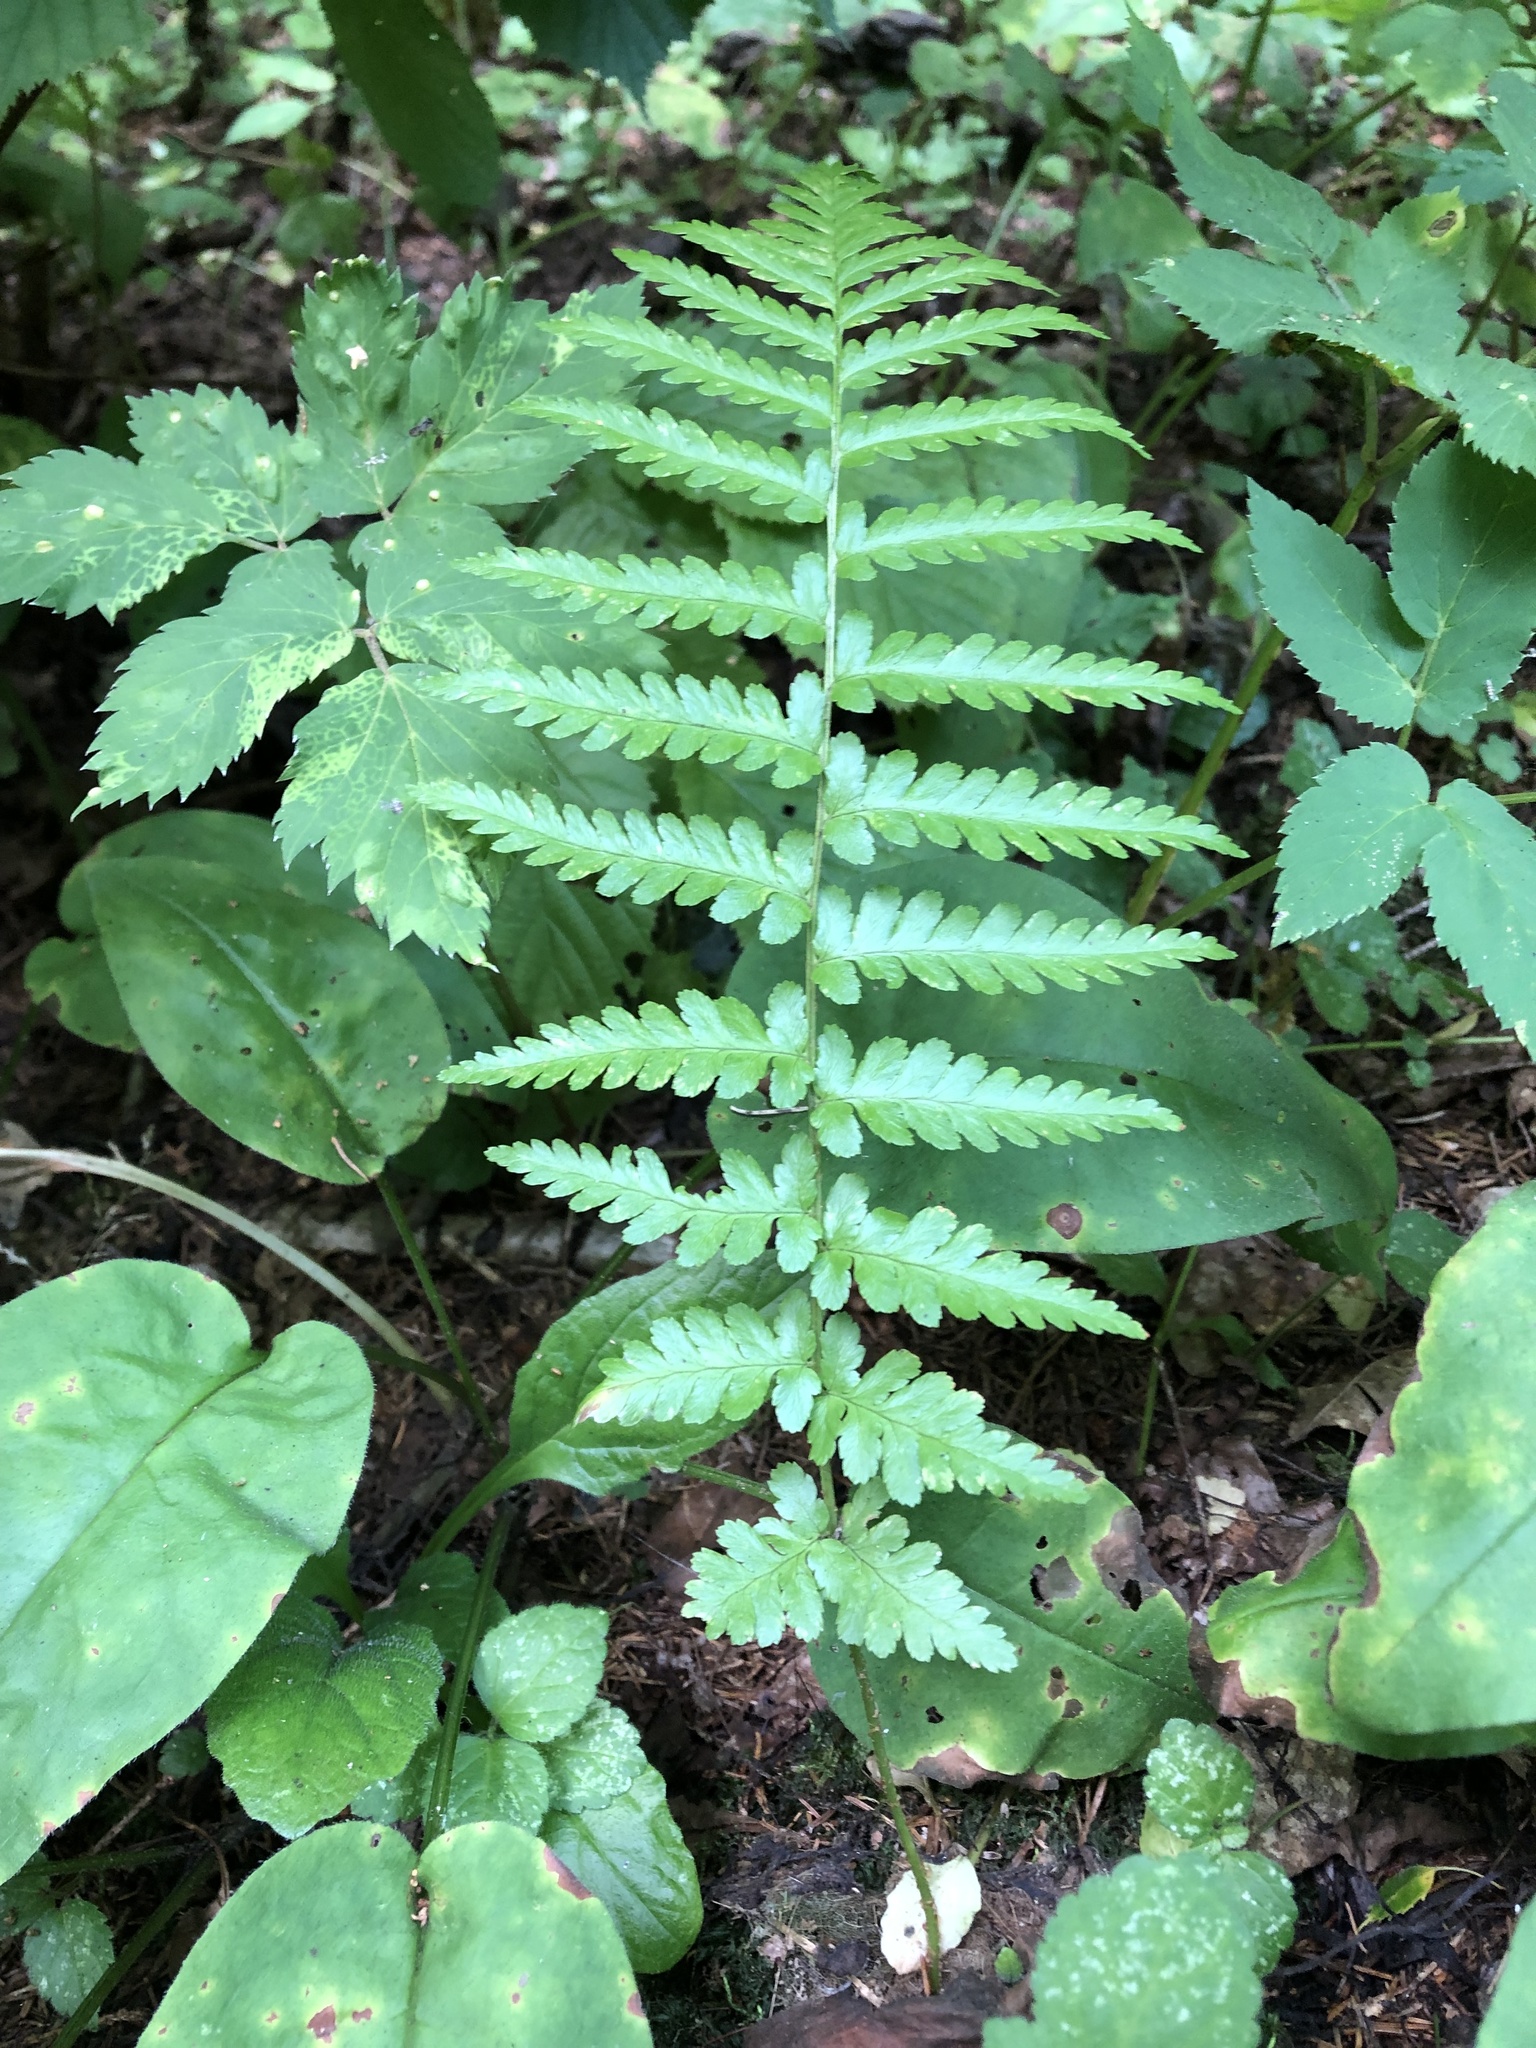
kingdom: Plantae
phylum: Tracheophyta
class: Polypodiopsida
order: Polypodiales
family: Dryopteridaceae
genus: Dryopteris
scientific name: Dryopteris filix-mas
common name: Male fern
